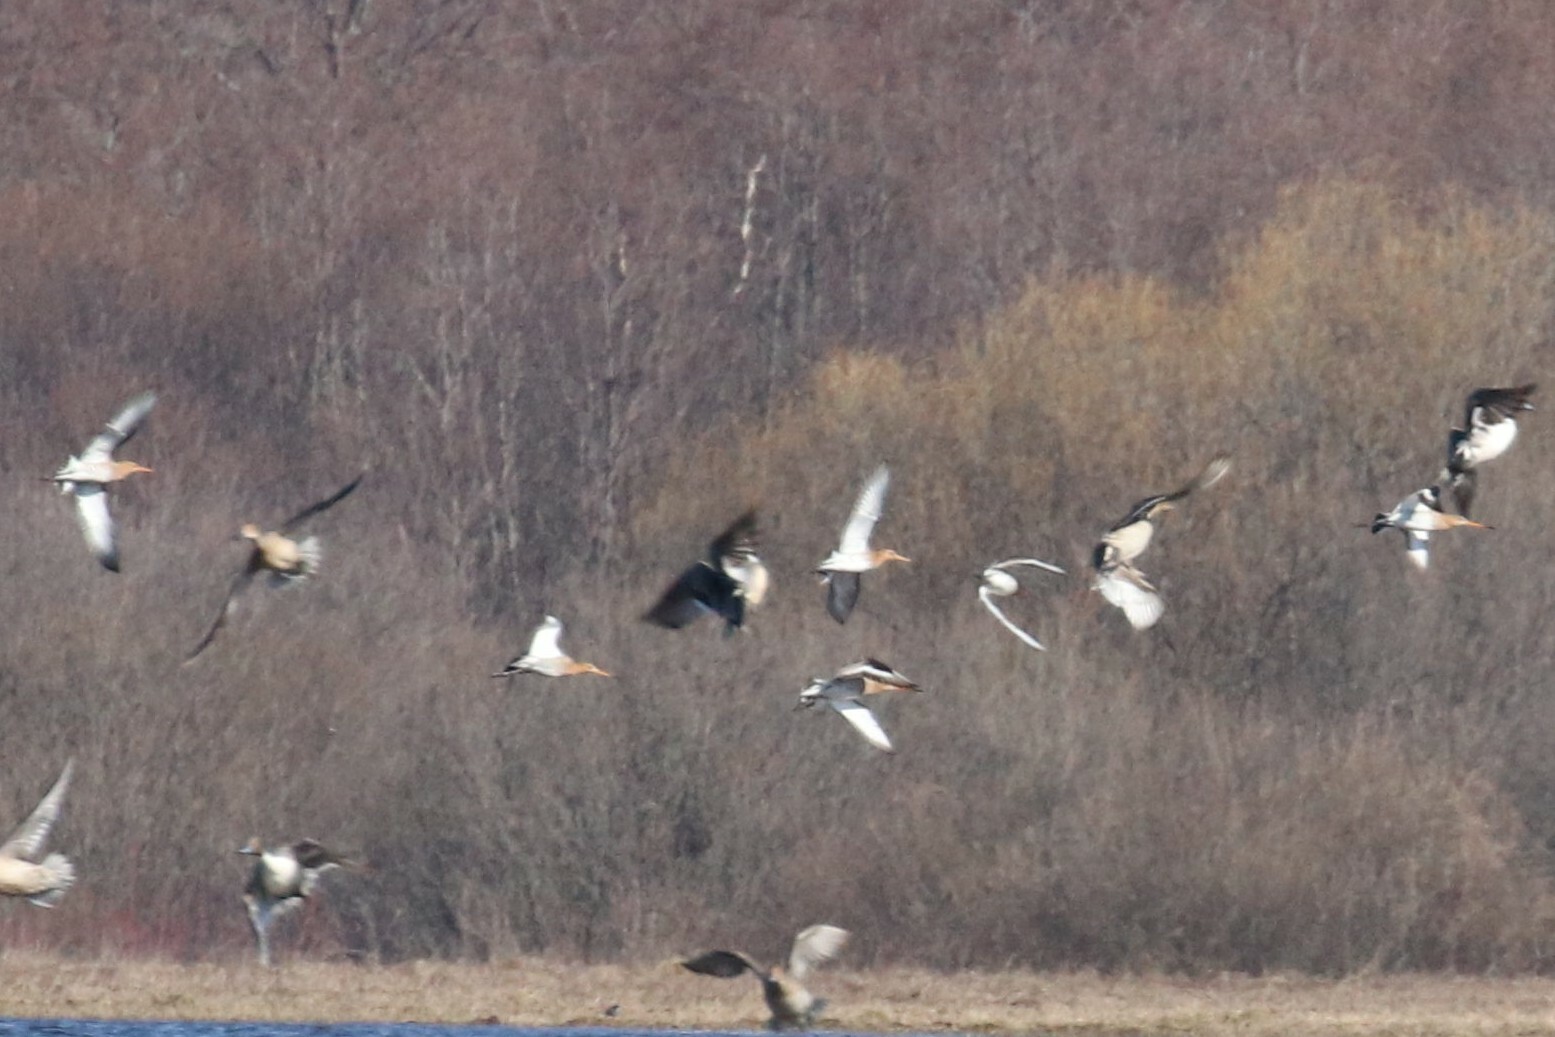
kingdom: Animalia
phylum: Chordata
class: Aves
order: Charadriiformes
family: Scolopacidae
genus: Limosa
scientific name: Limosa limosa
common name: Black-tailed godwit
